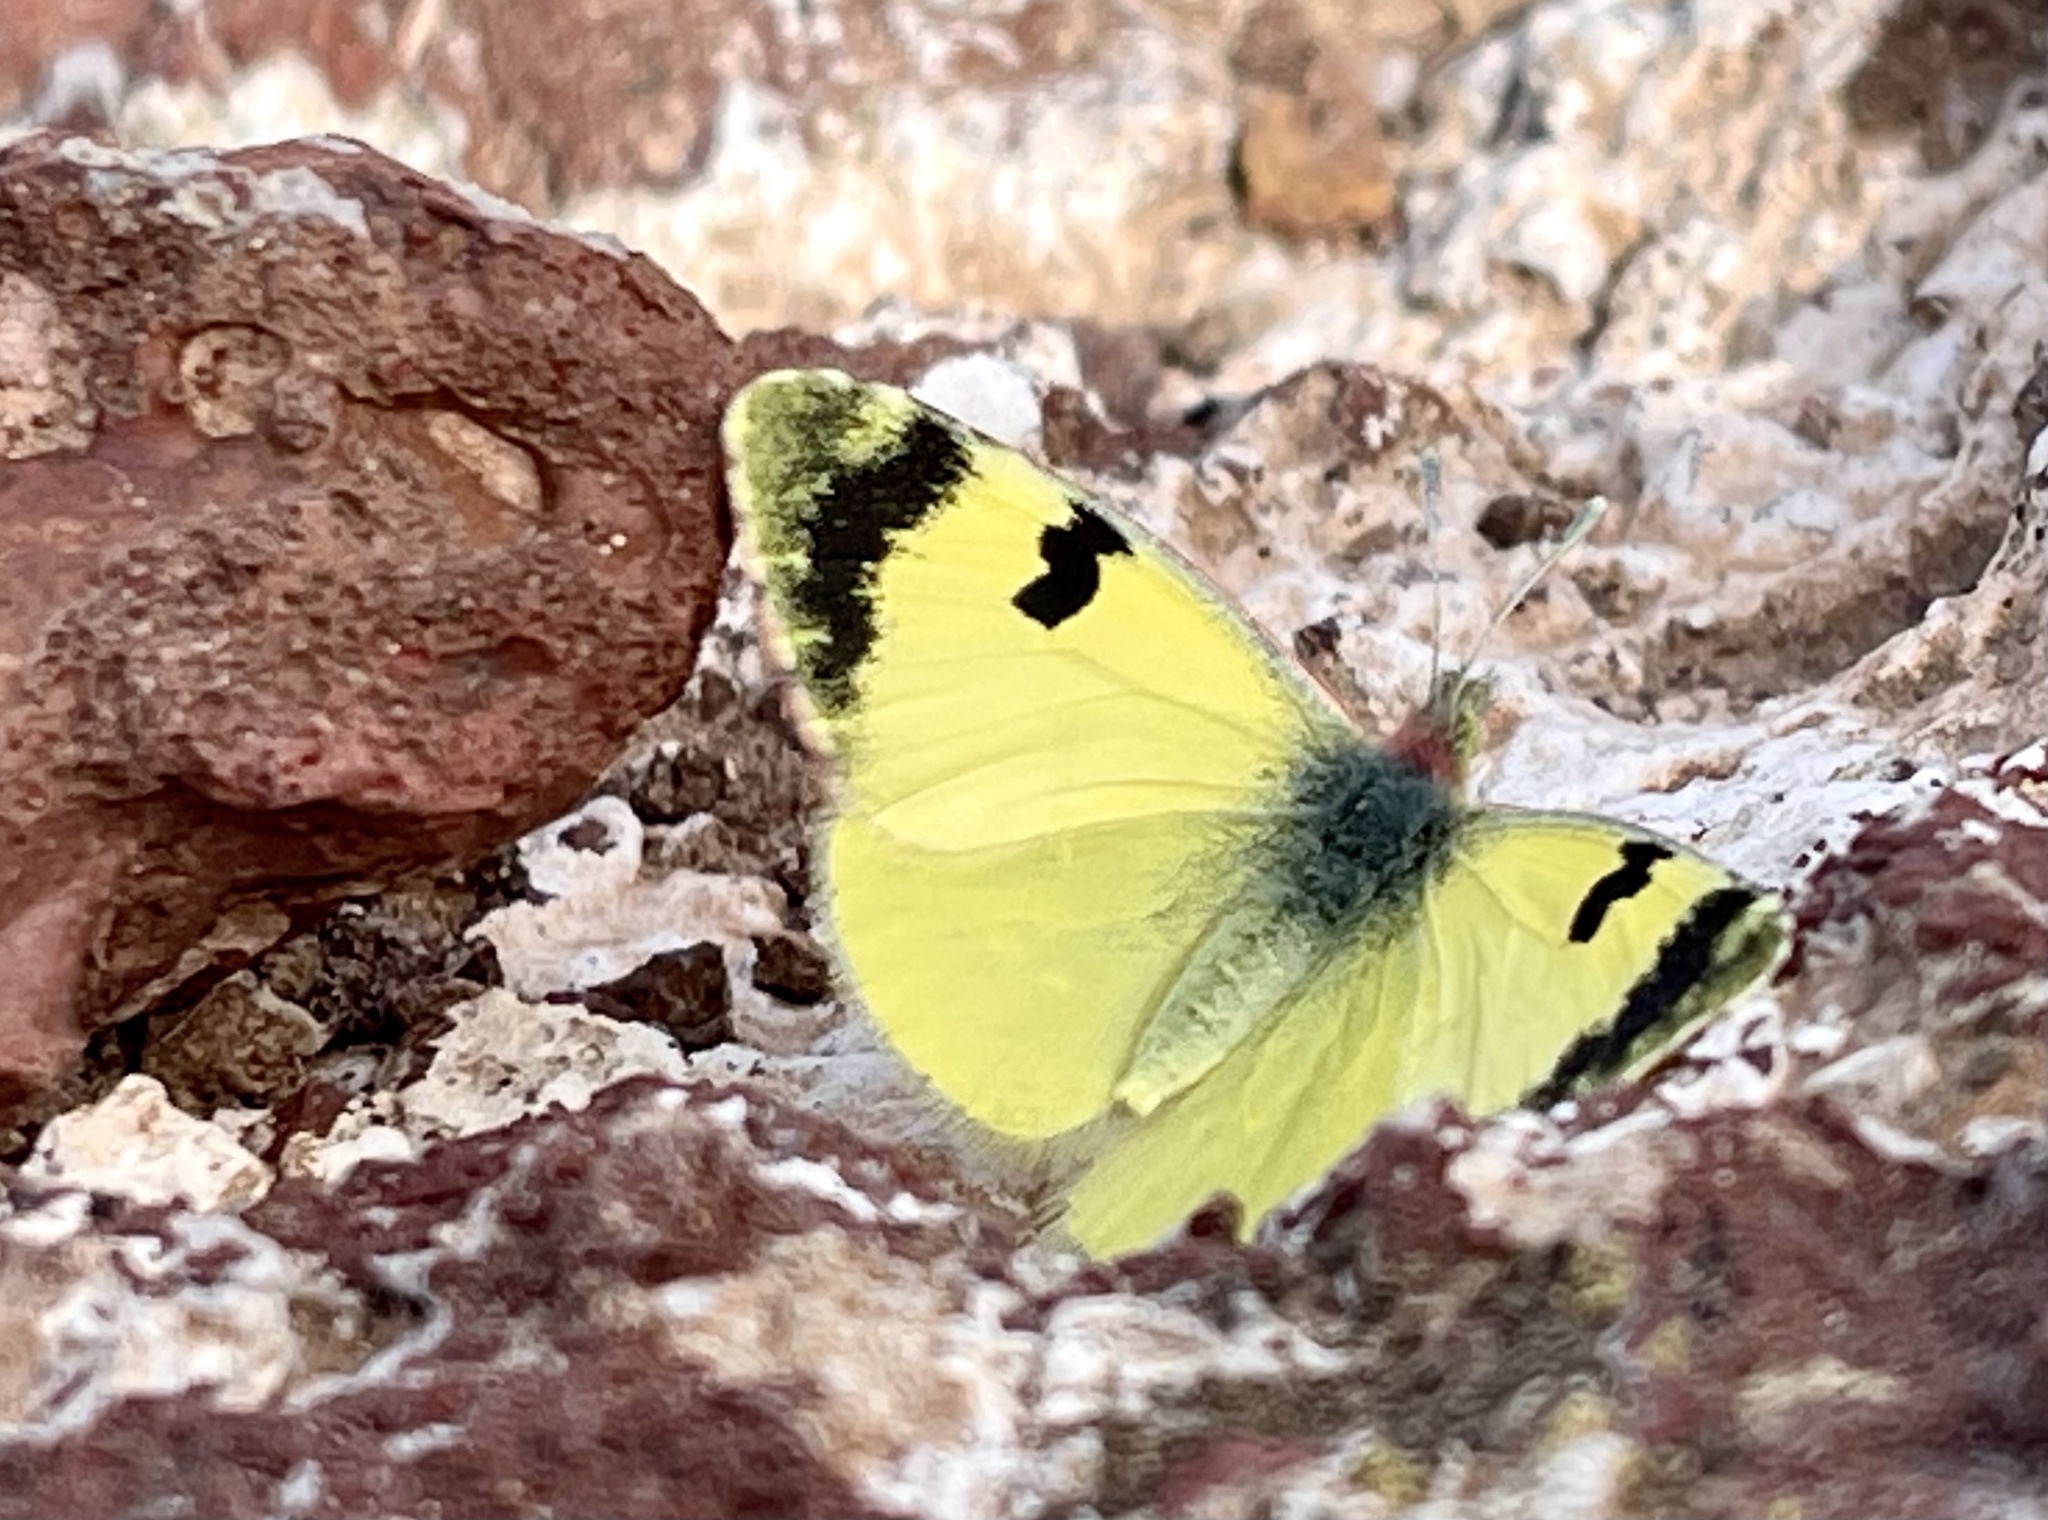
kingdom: Animalia
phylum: Arthropoda
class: Insecta
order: Lepidoptera
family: Pieridae
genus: Elphinstonia
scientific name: Elphinstonia charlonia
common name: Greenish black-tip
